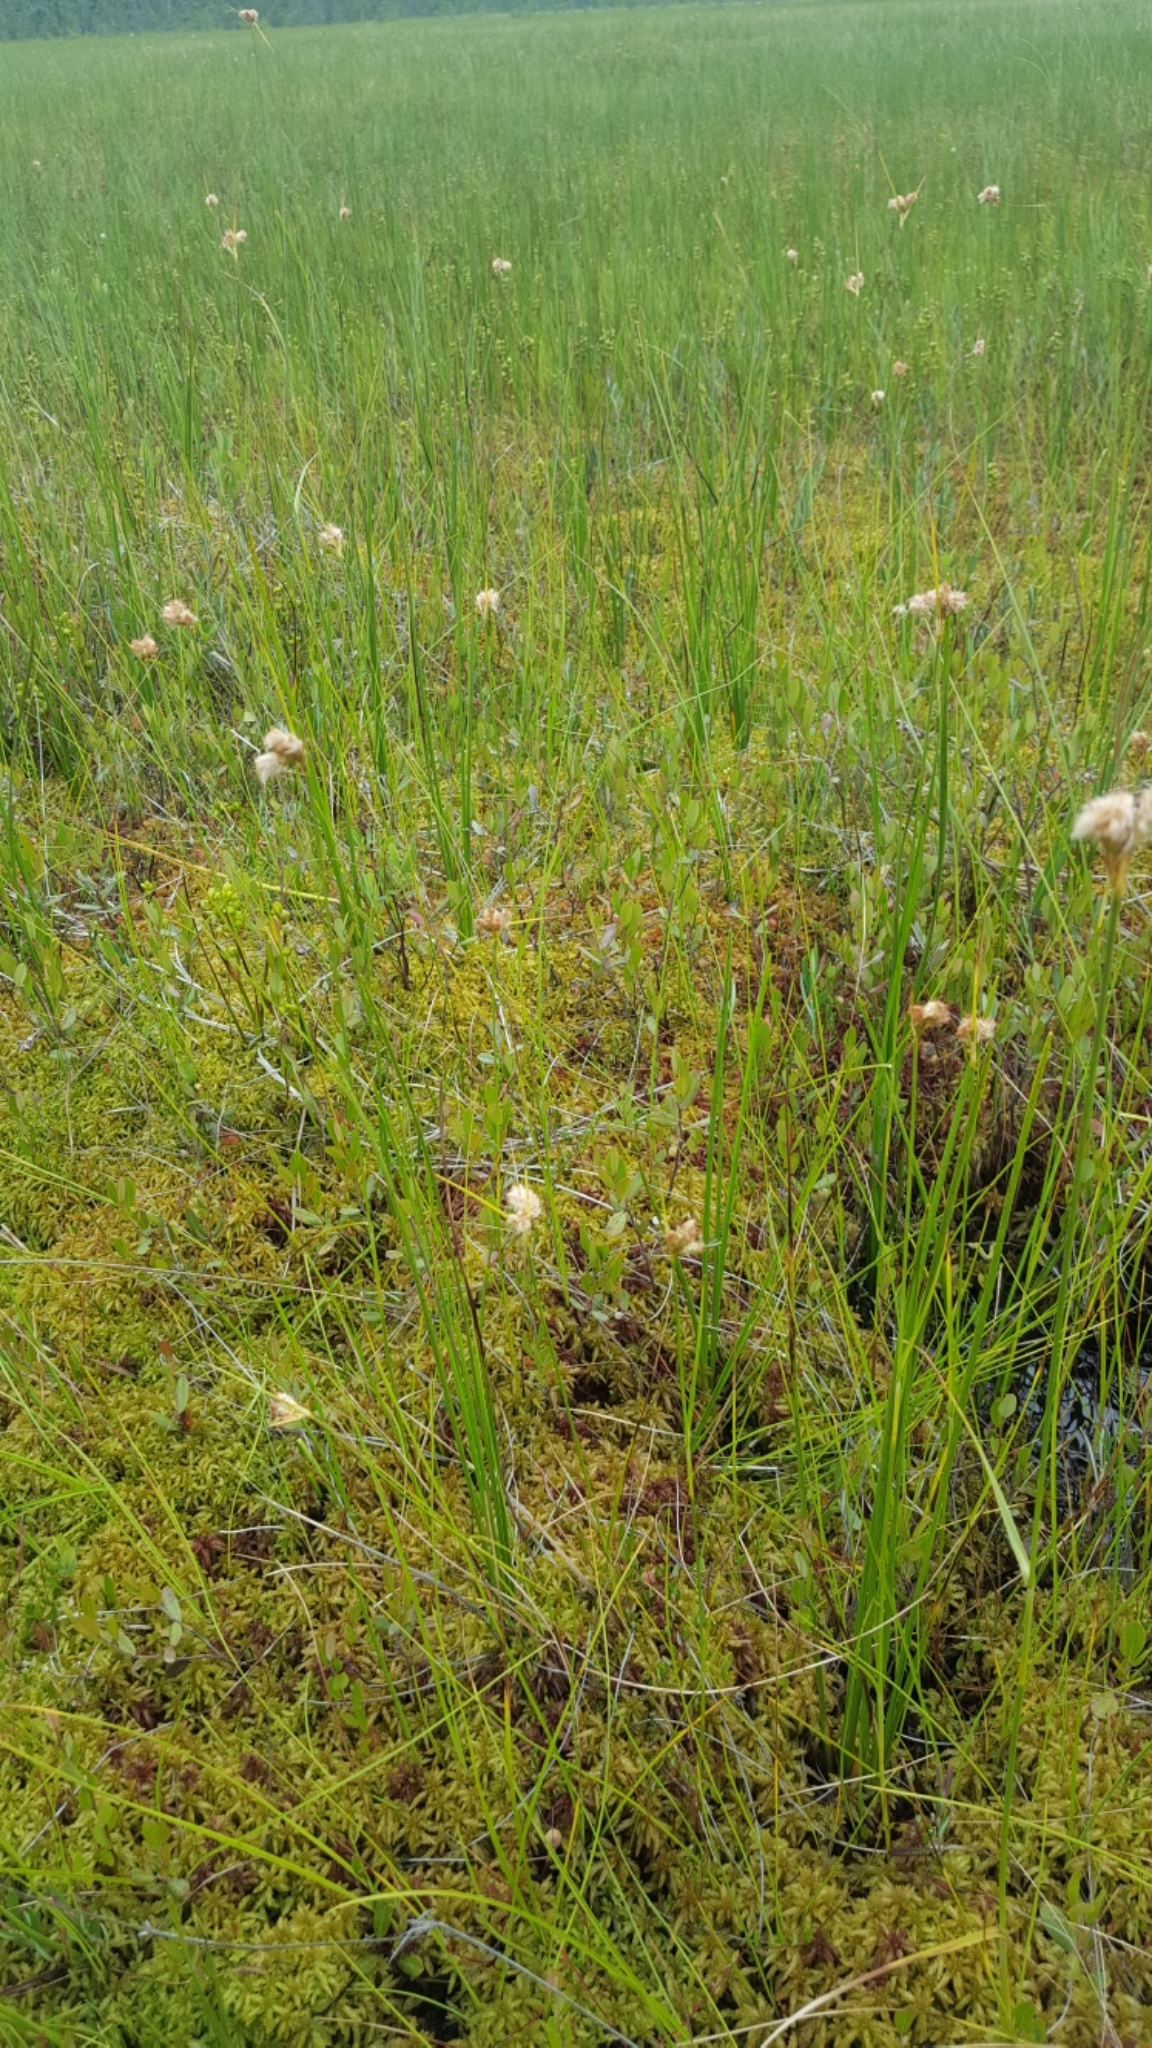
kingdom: Plantae
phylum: Tracheophyta
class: Liliopsida
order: Poales
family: Cyperaceae
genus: Eriophorum
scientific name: Eriophorum virginicum
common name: Tawny cottongrass
